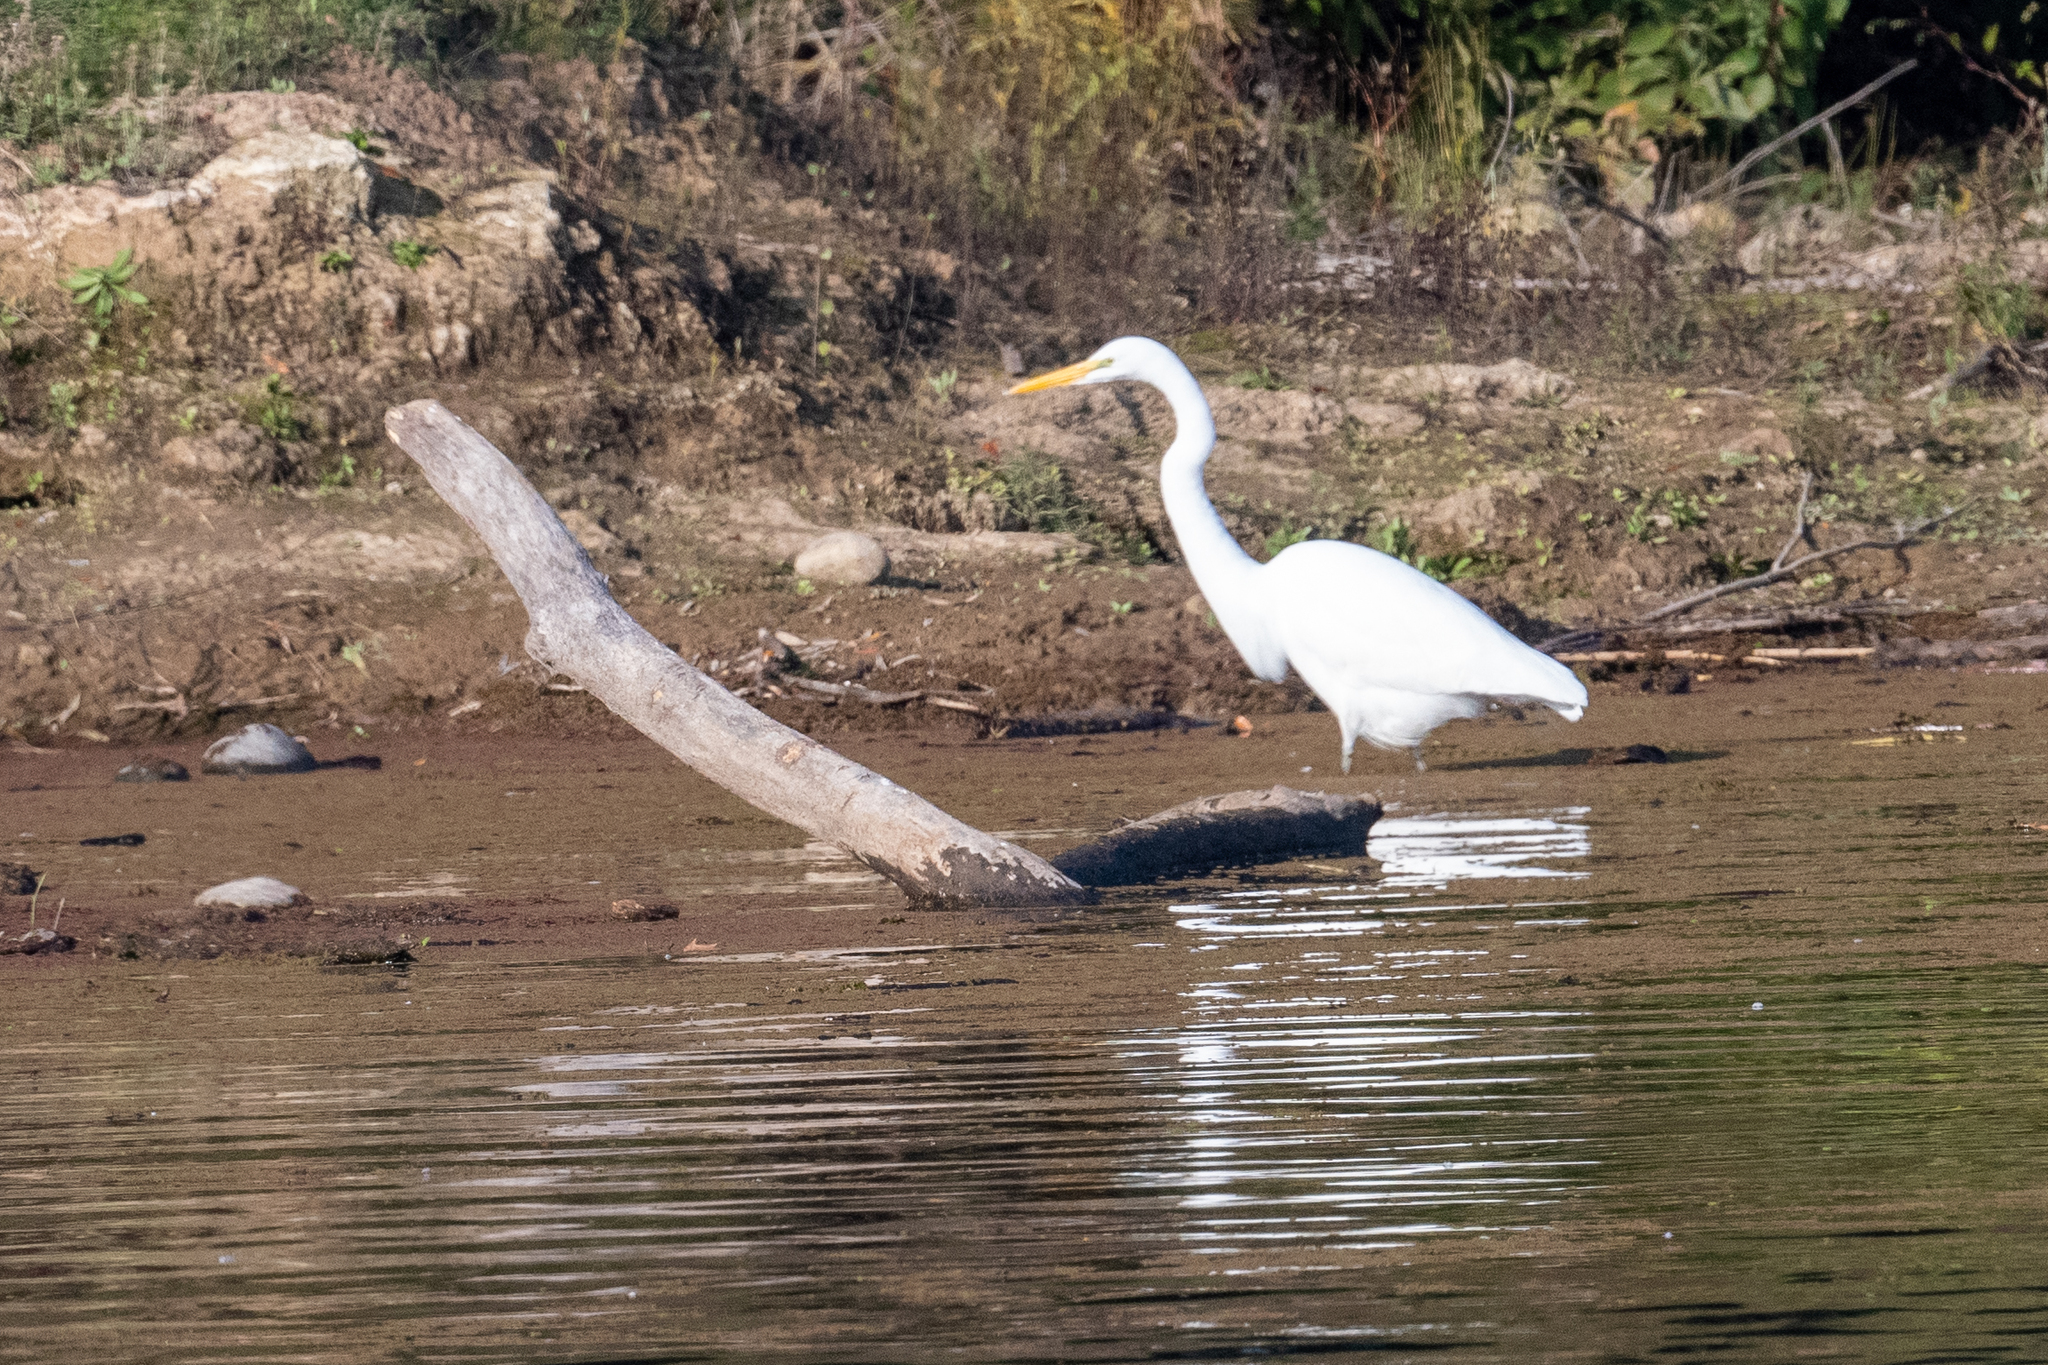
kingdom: Animalia
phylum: Chordata
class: Aves
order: Pelecaniformes
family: Ardeidae
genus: Ardea
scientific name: Ardea alba
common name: Great egret
